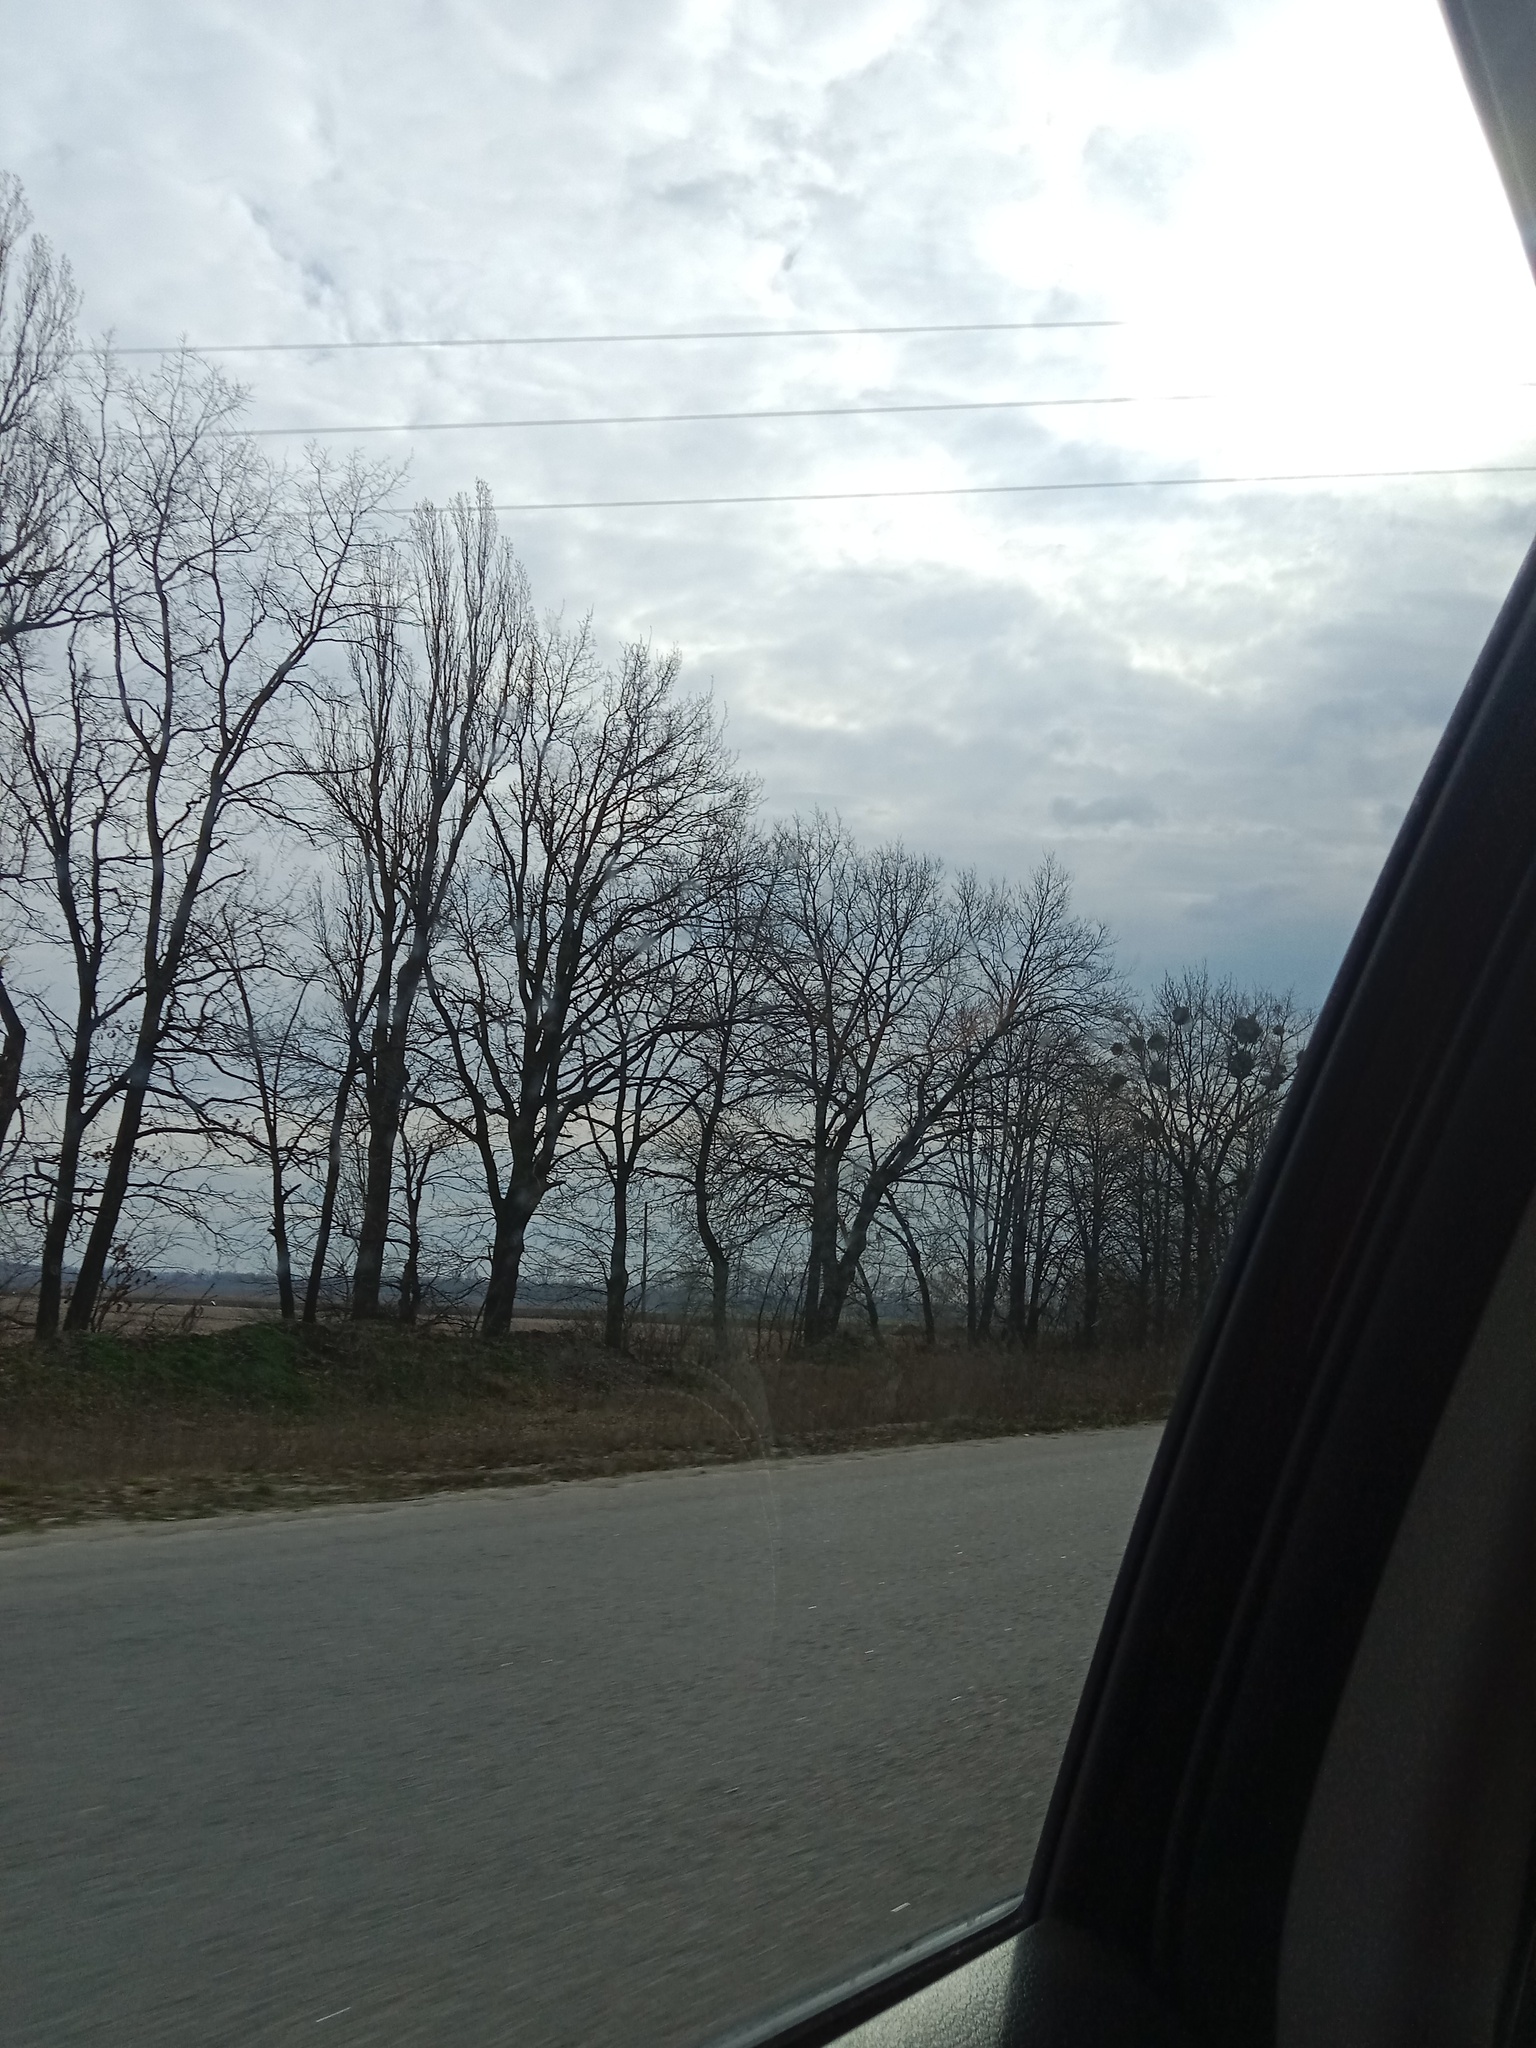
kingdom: Plantae
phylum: Tracheophyta
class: Magnoliopsida
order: Santalales
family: Viscaceae
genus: Viscum
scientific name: Viscum album
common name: Mistletoe
